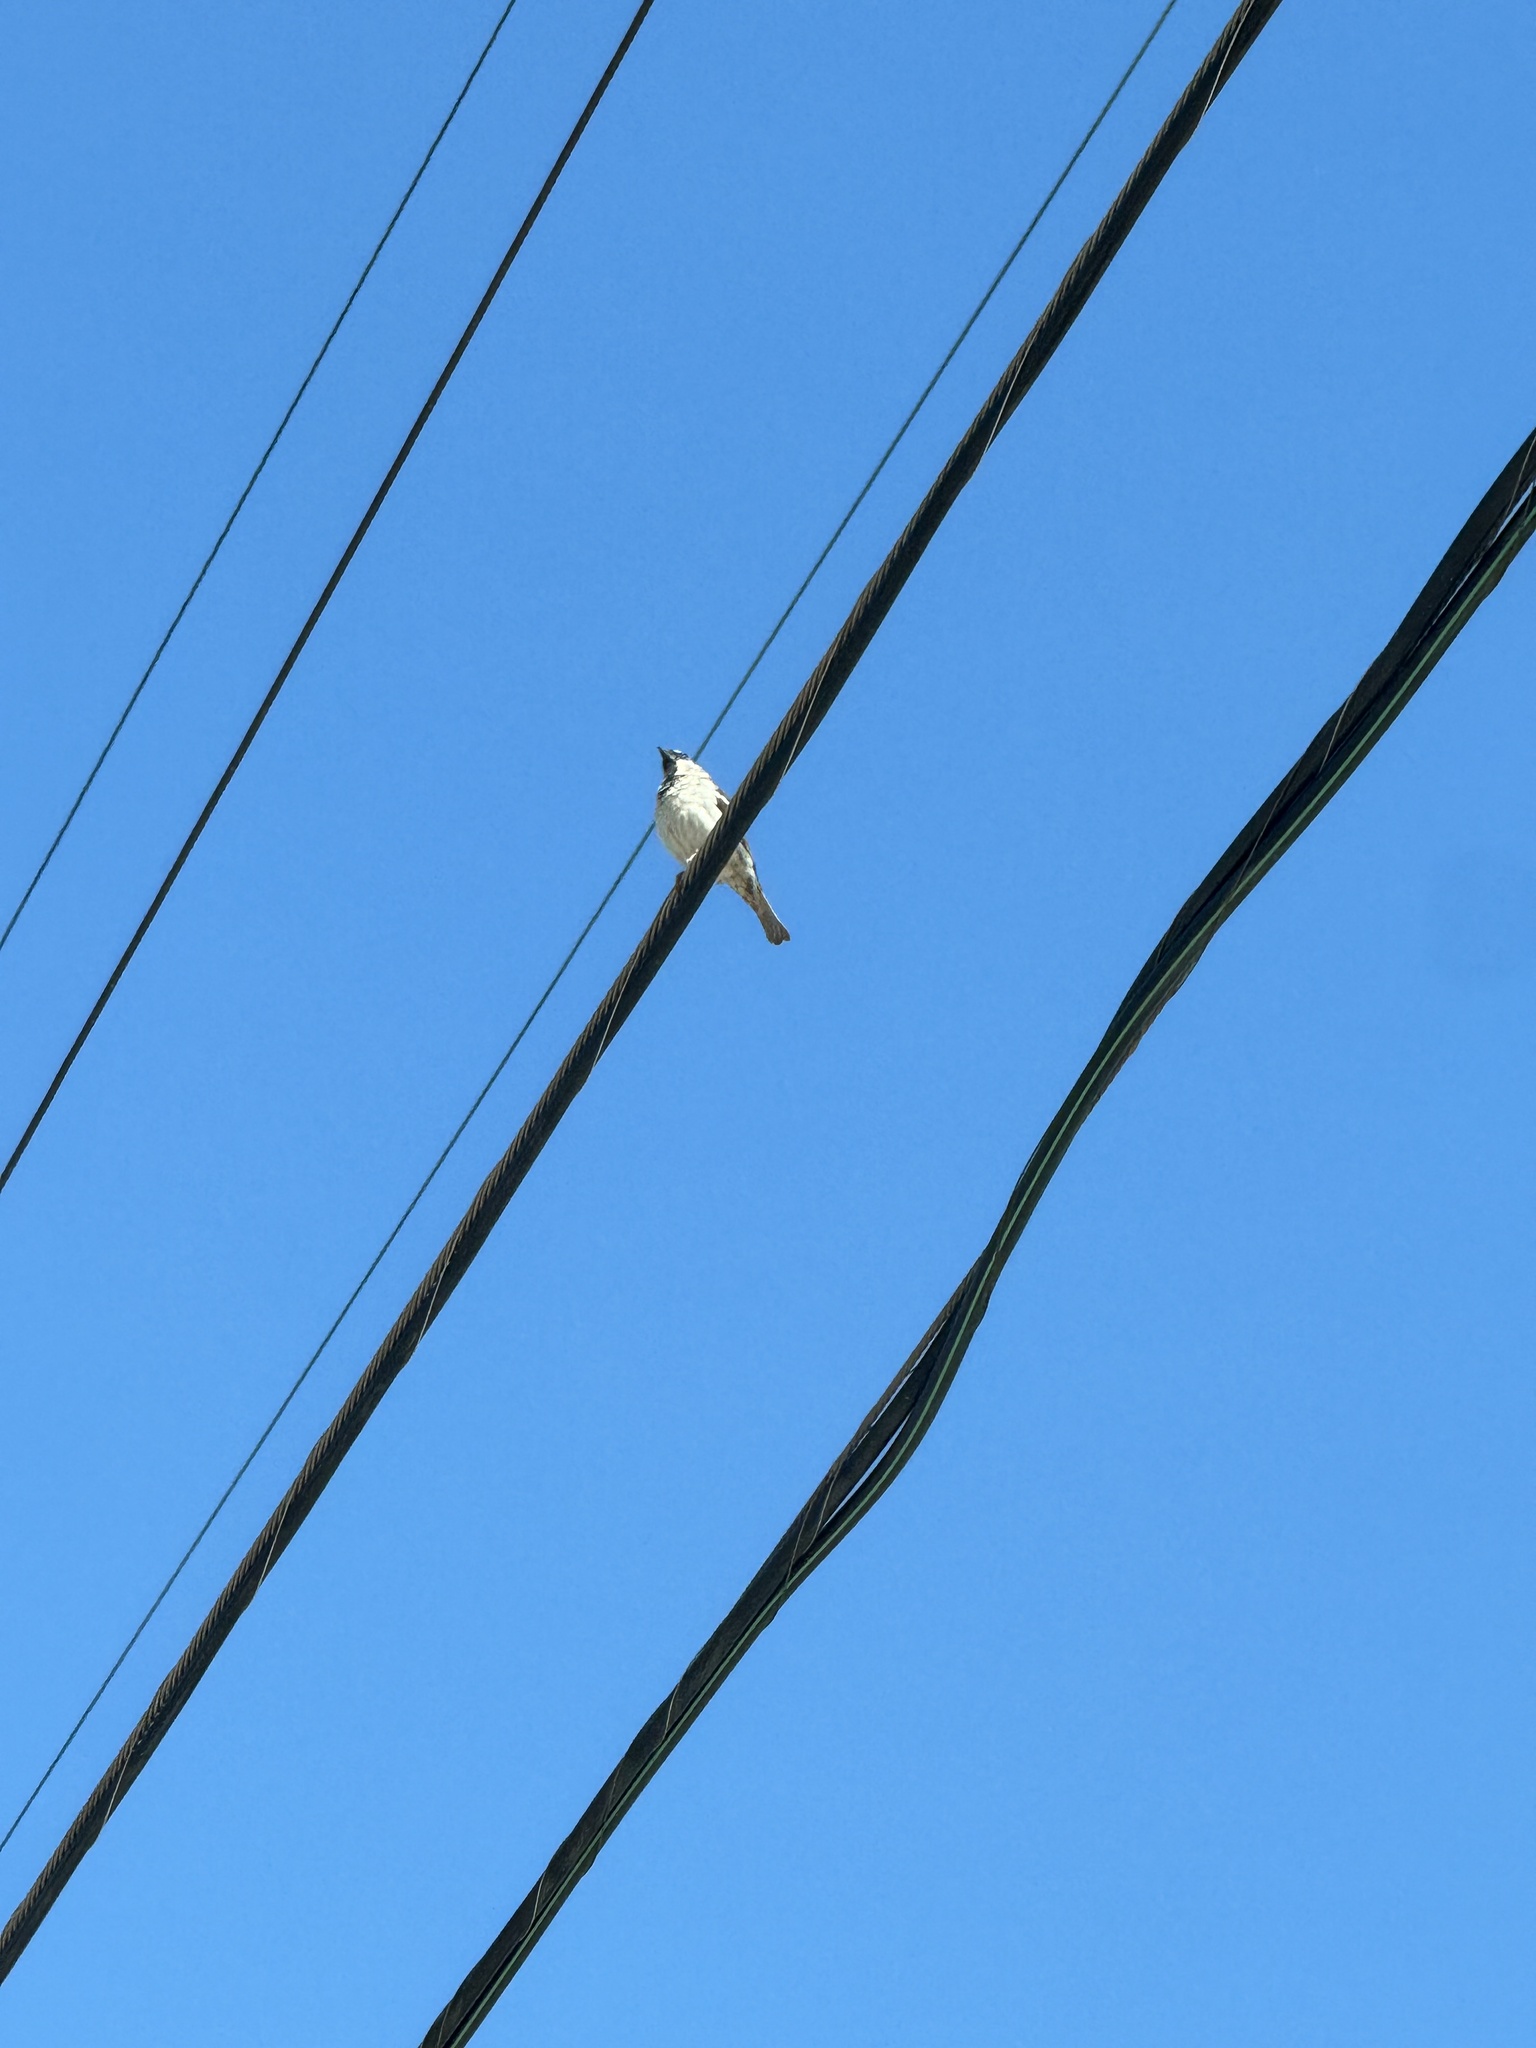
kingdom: Animalia
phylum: Chordata
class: Aves
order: Passeriformes
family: Passeridae
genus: Passer
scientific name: Passer domesticus
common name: House sparrow
